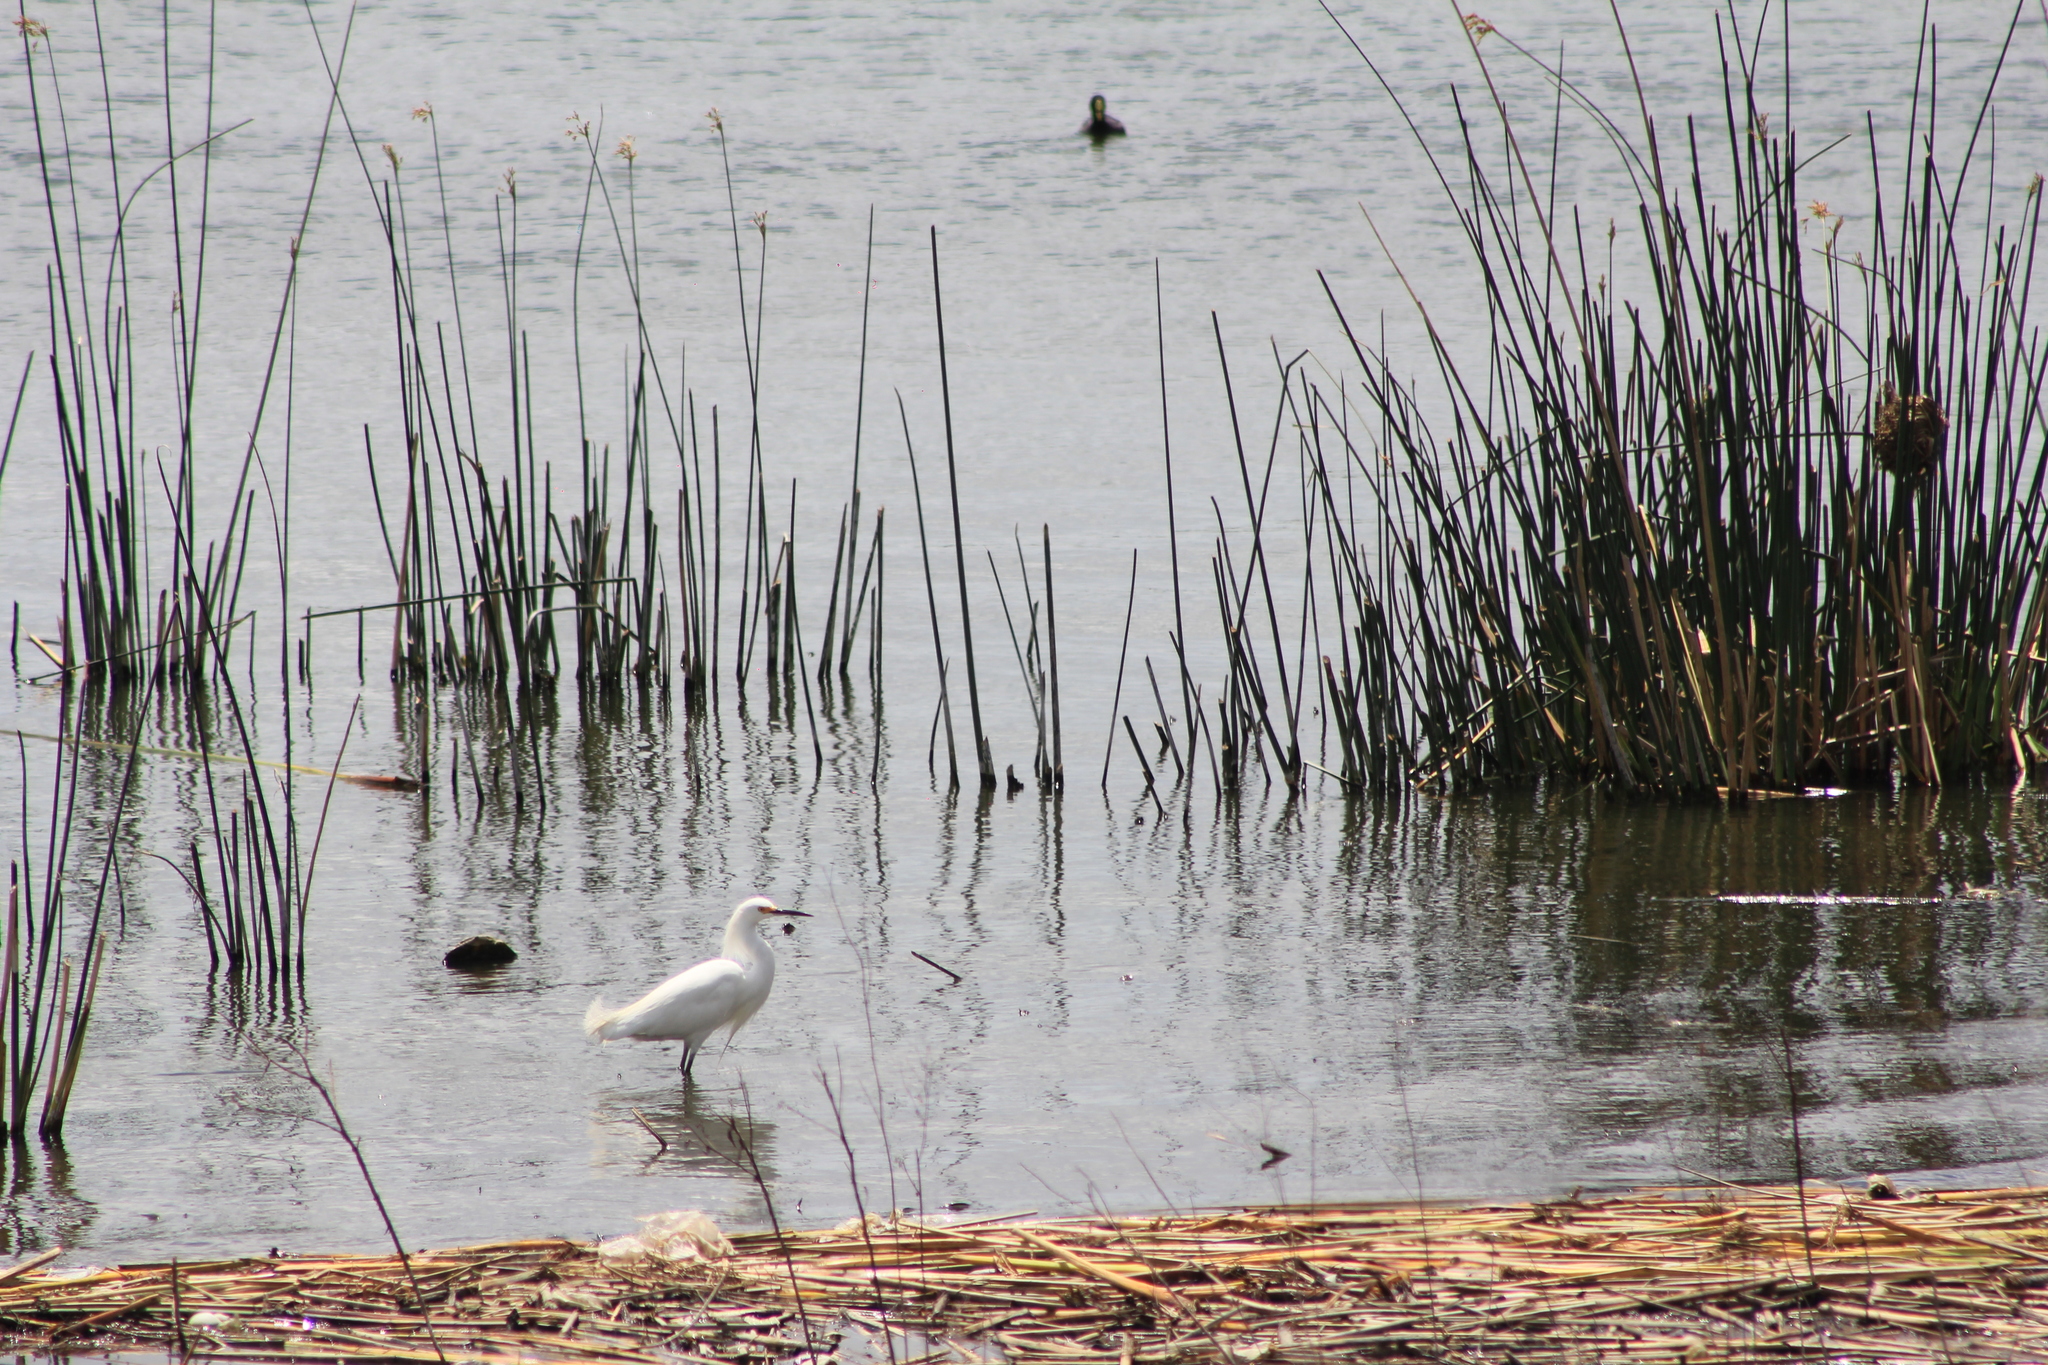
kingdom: Animalia
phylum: Chordata
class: Aves
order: Pelecaniformes
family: Ardeidae
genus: Egretta
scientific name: Egretta thula
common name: Snowy egret
